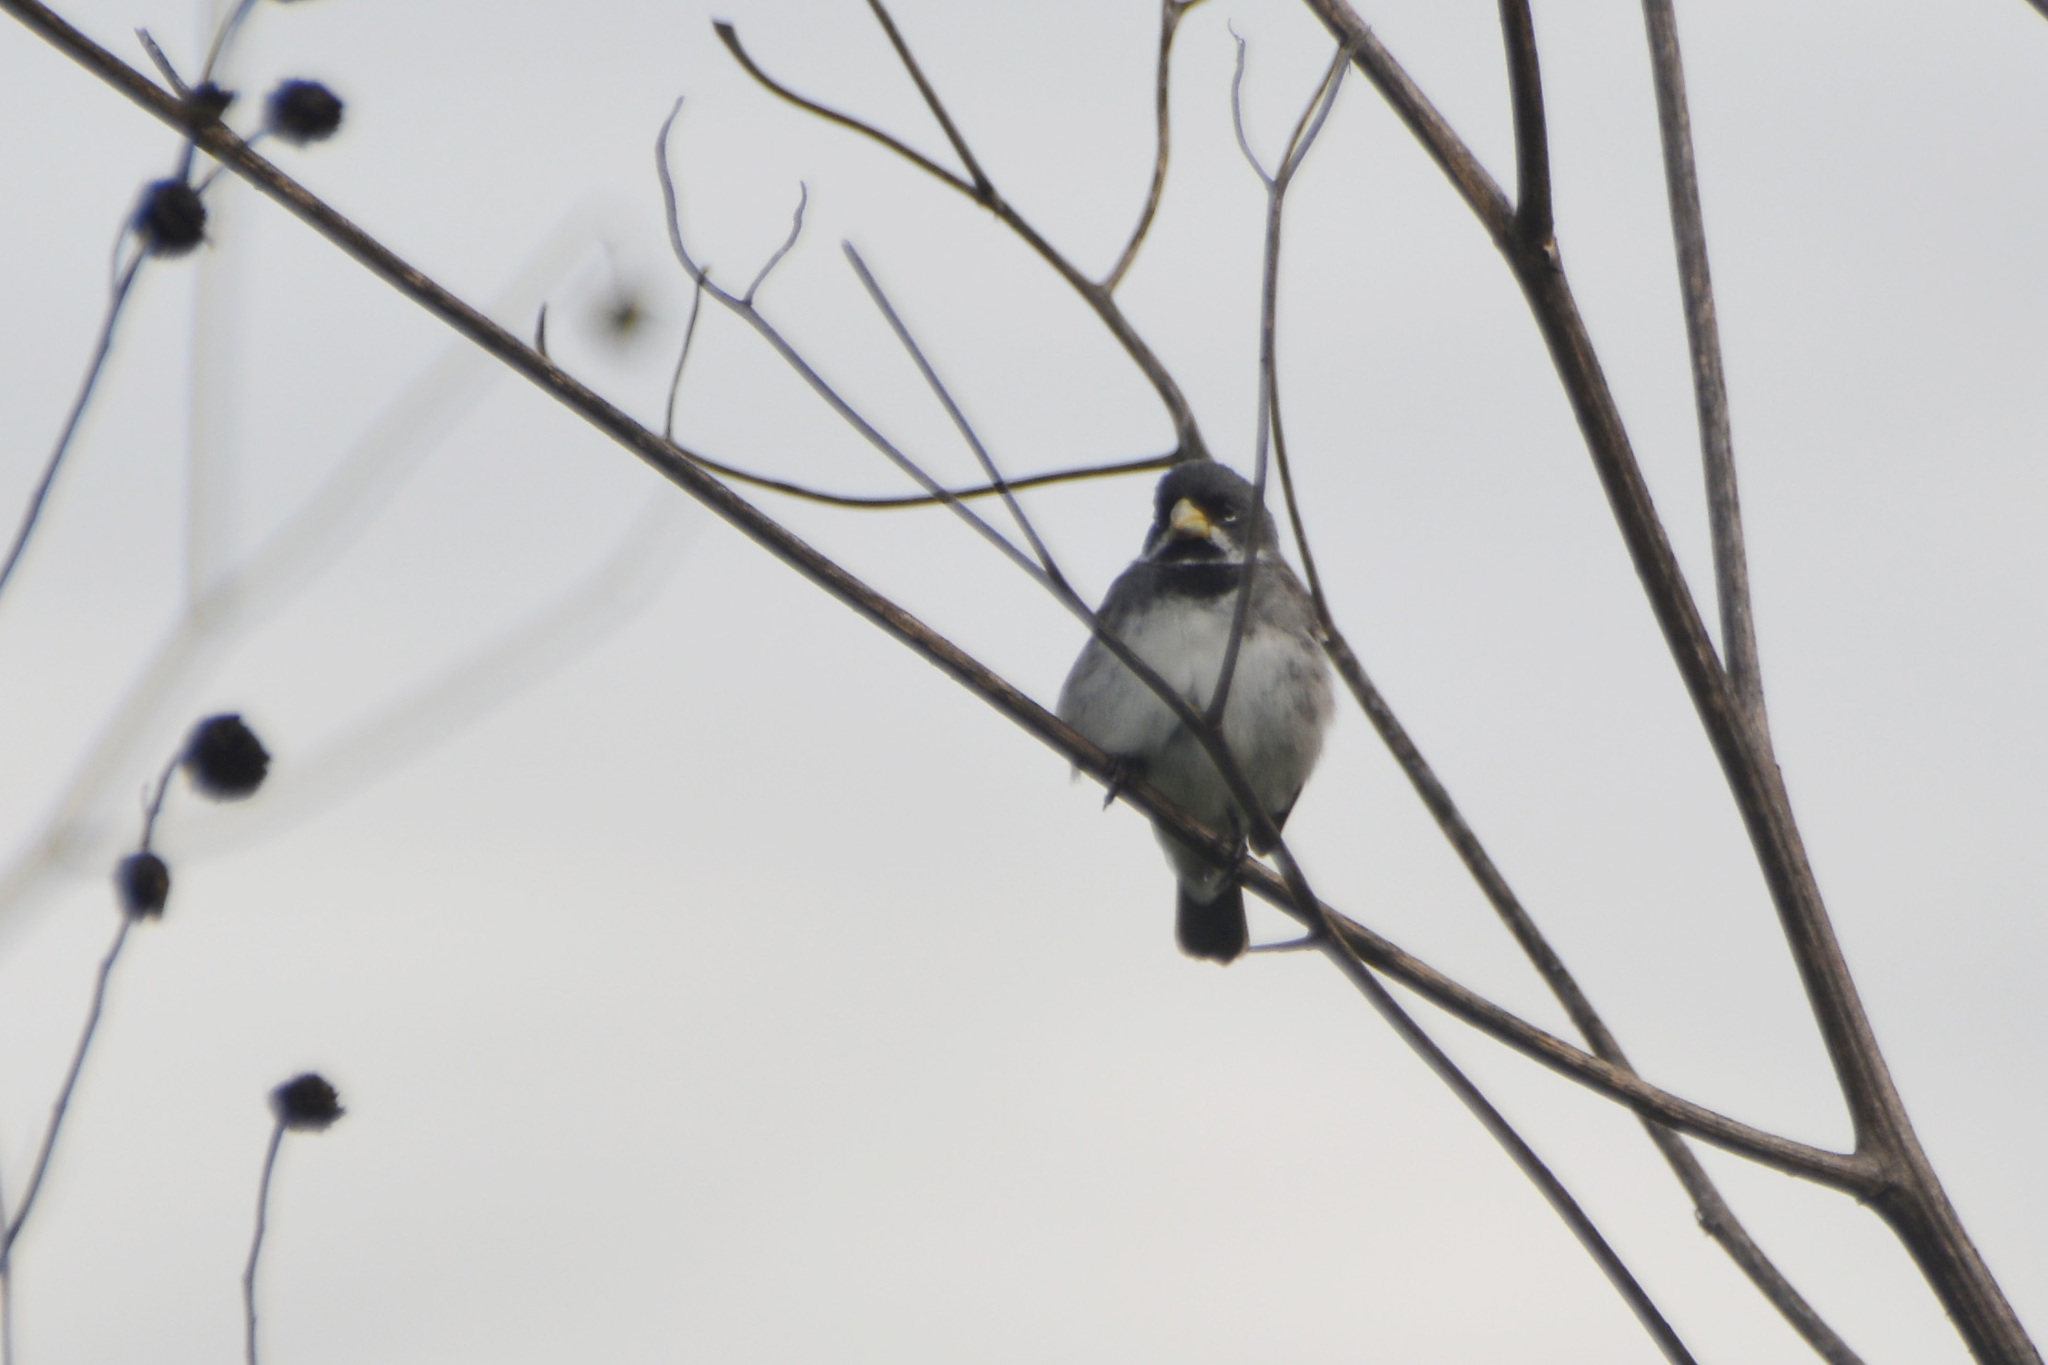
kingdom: Animalia
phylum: Chordata
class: Aves
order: Passeriformes
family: Thraupidae
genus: Sporophila
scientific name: Sporophila caerulescens
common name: Double-collared seedeater
